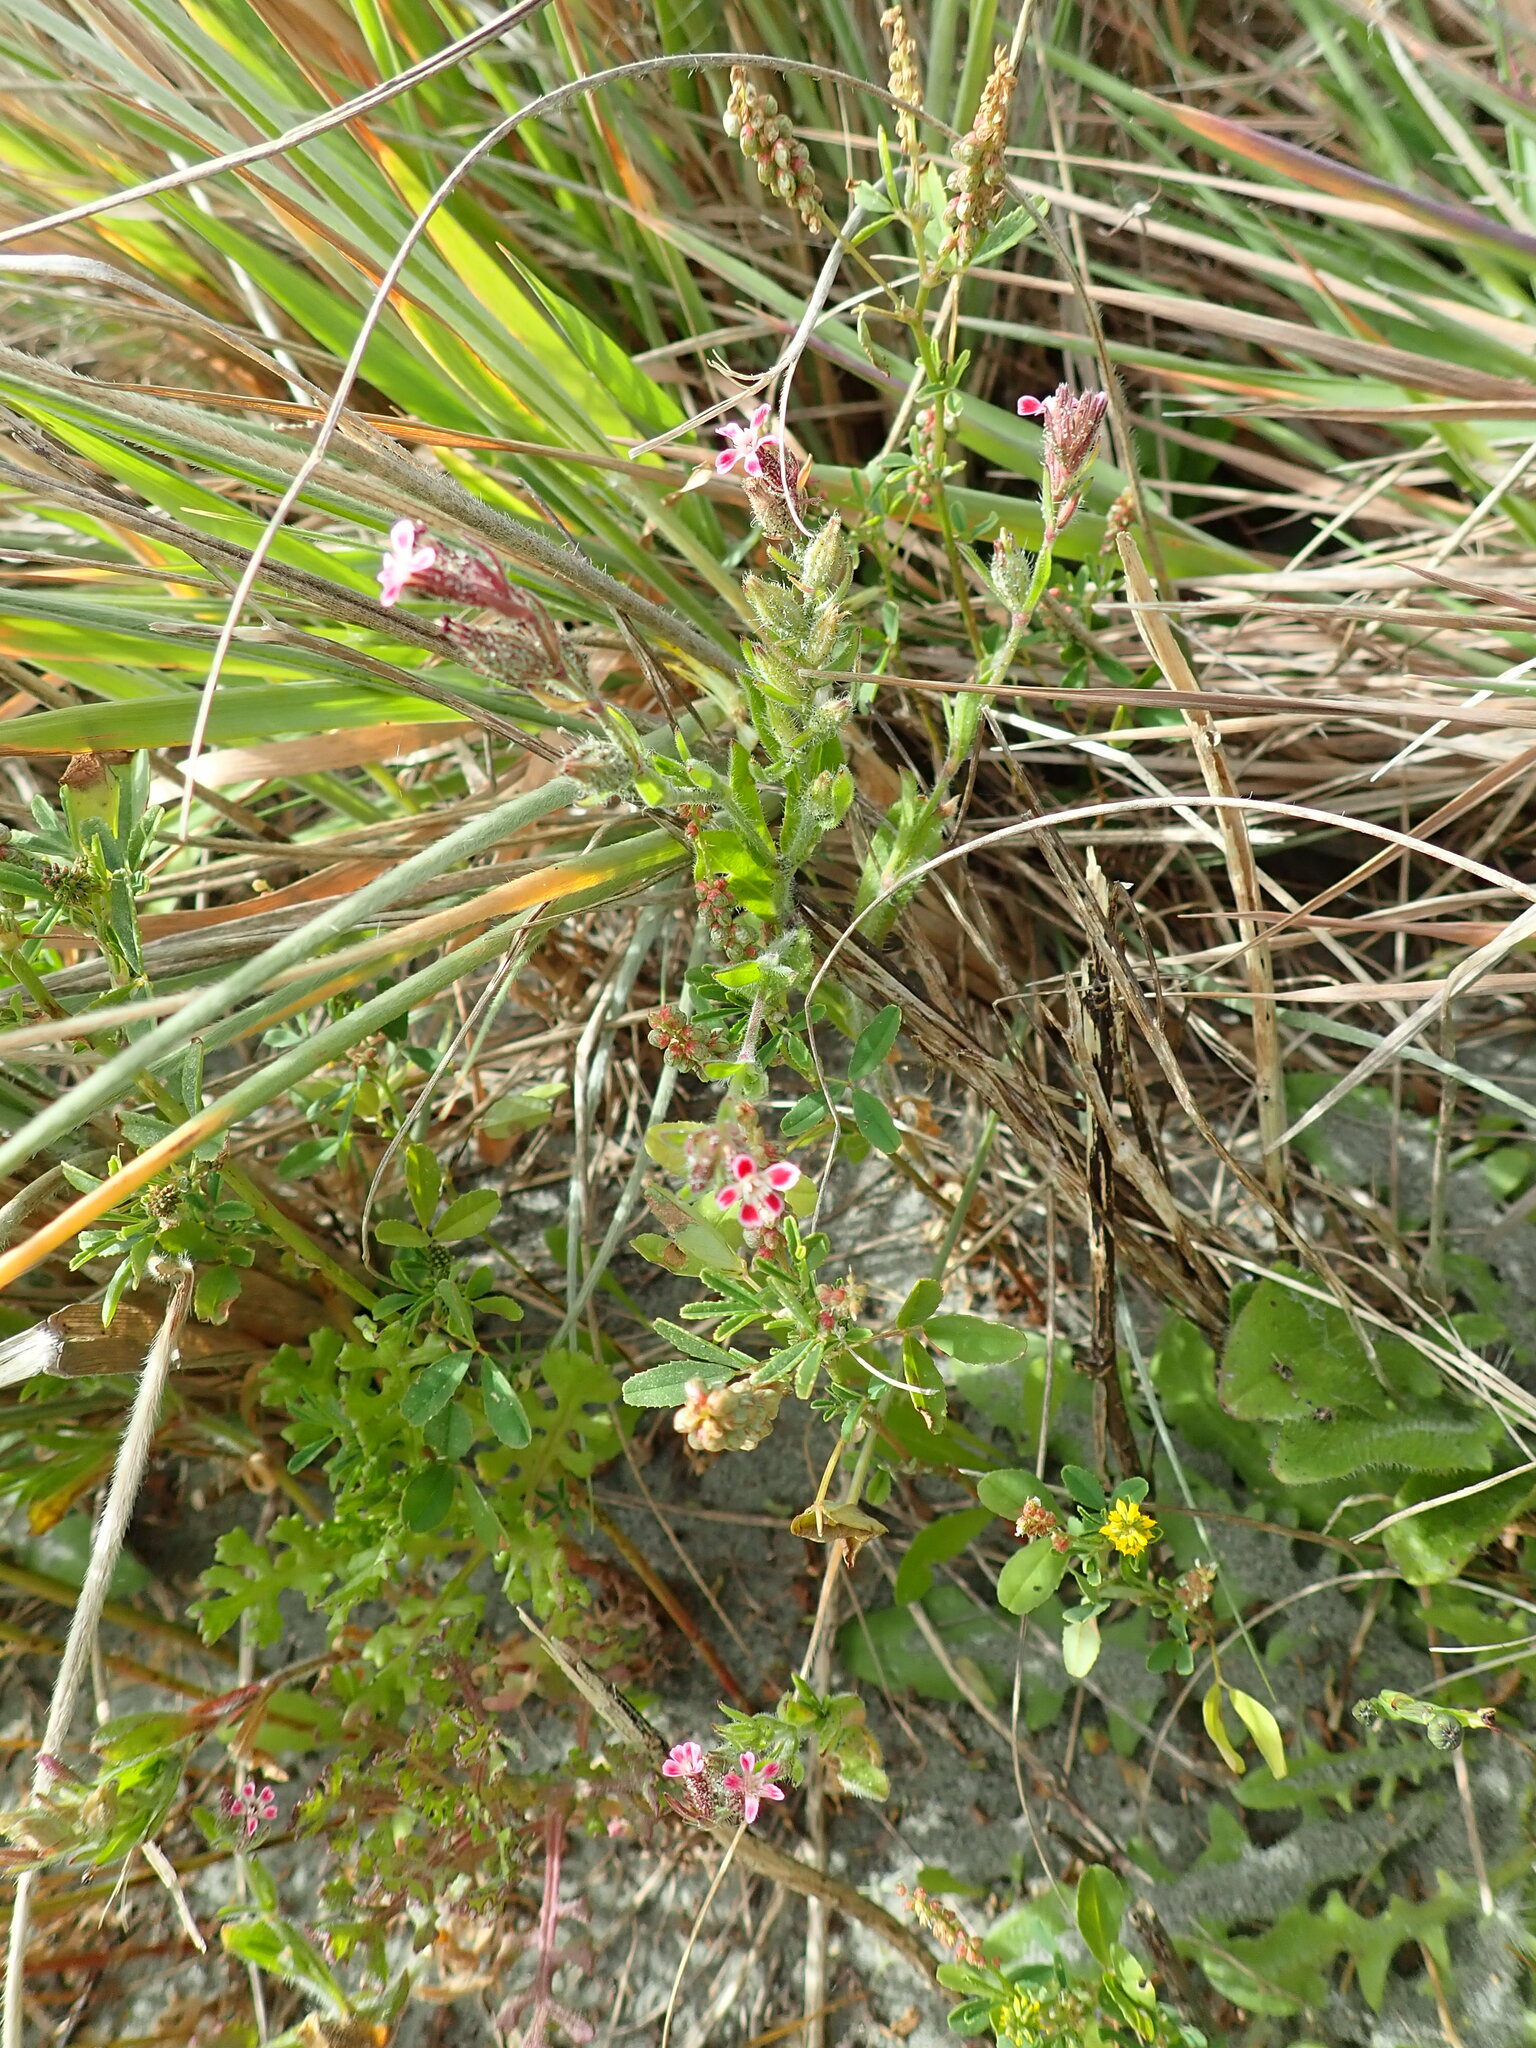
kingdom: Plantae
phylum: Tracheophyta
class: Magnoliopsida
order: Caryophyllales
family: Caryophyllaceae
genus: Silene
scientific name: Silene gallica
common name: Small-flowered catchfly
